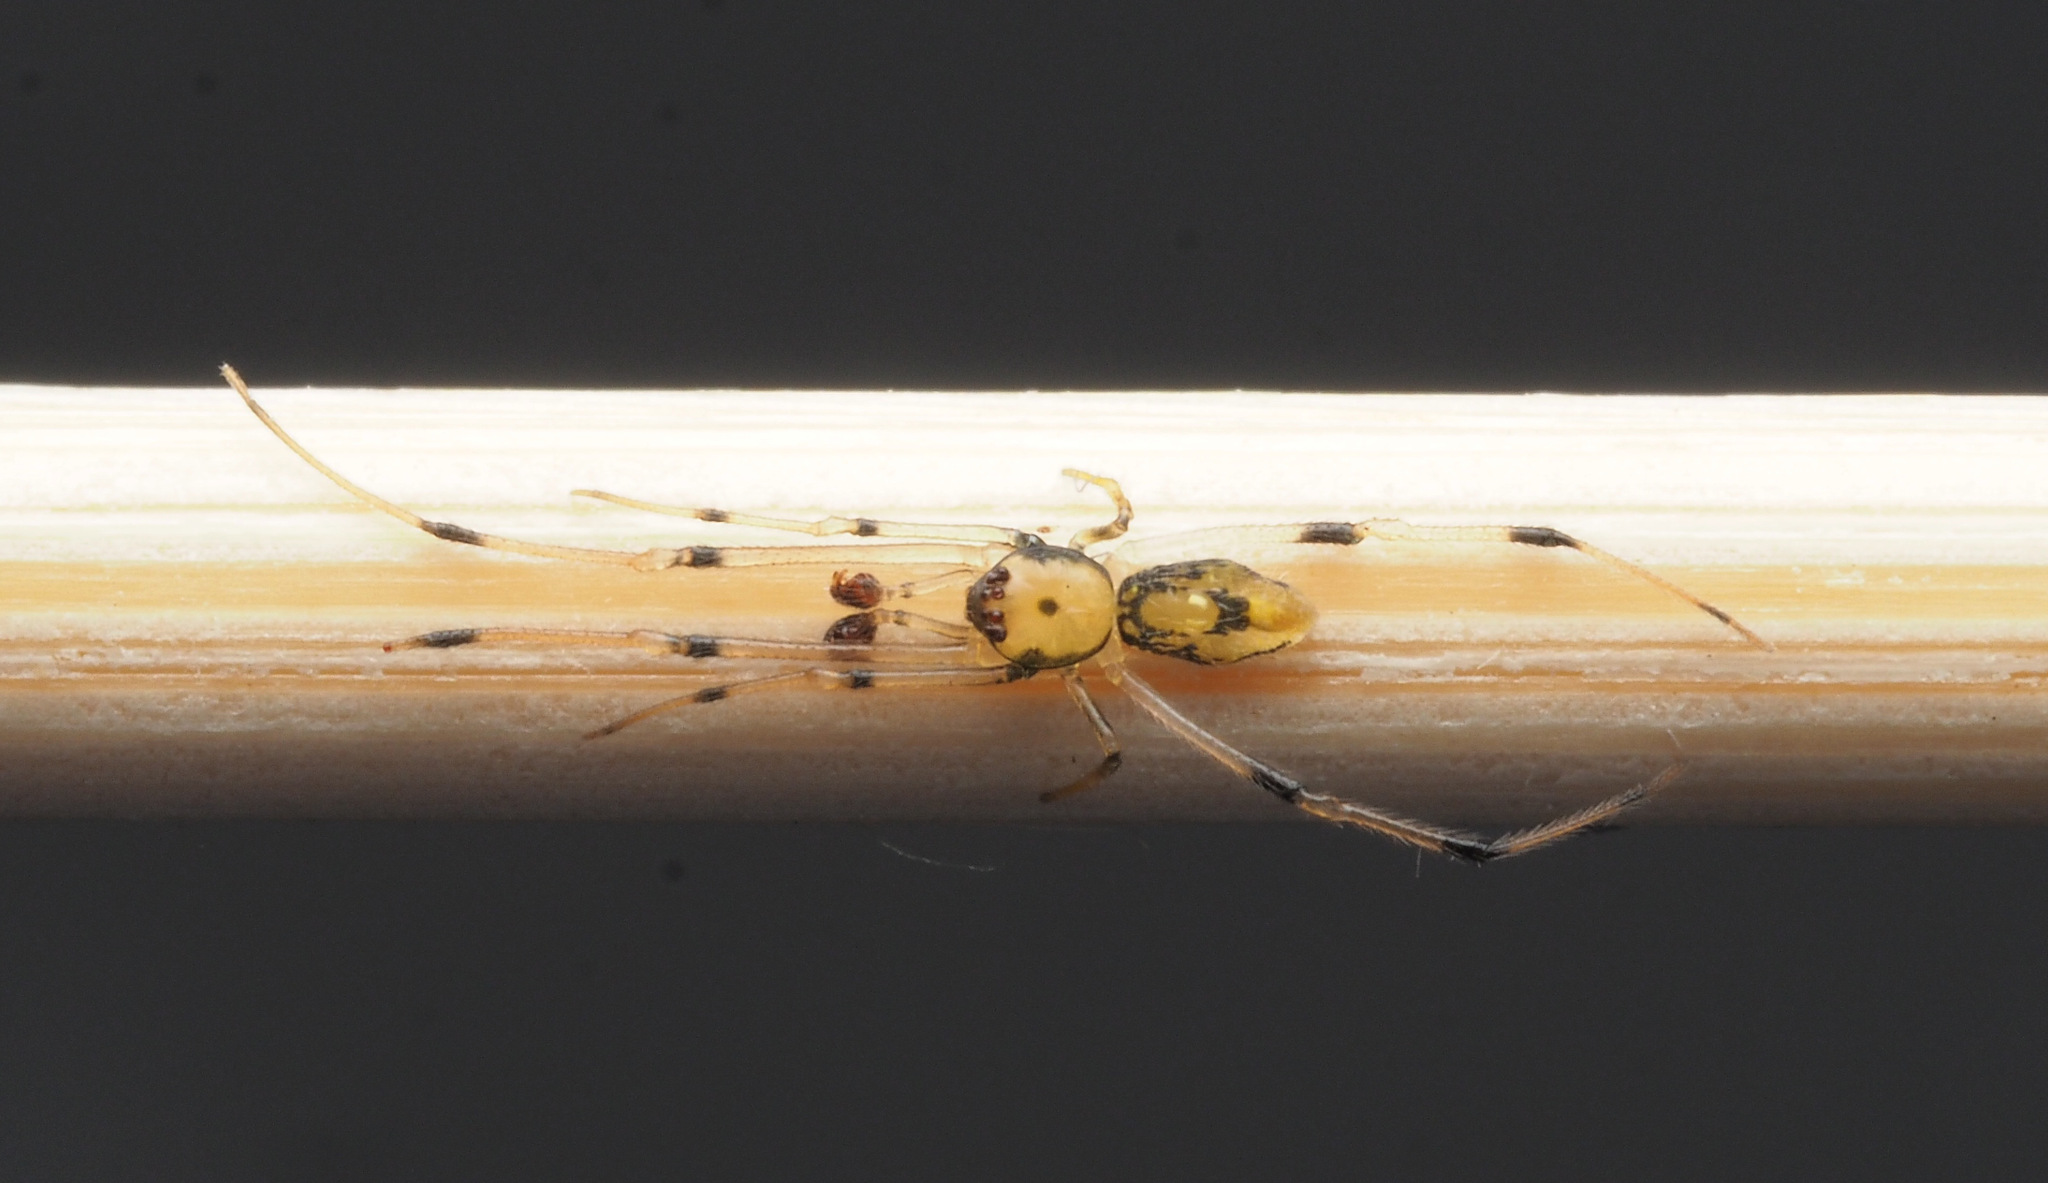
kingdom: Animalia
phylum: Arthropoda
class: Arachnida
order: Araneae
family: Theridiidae
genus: Moneta
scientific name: Moneta
